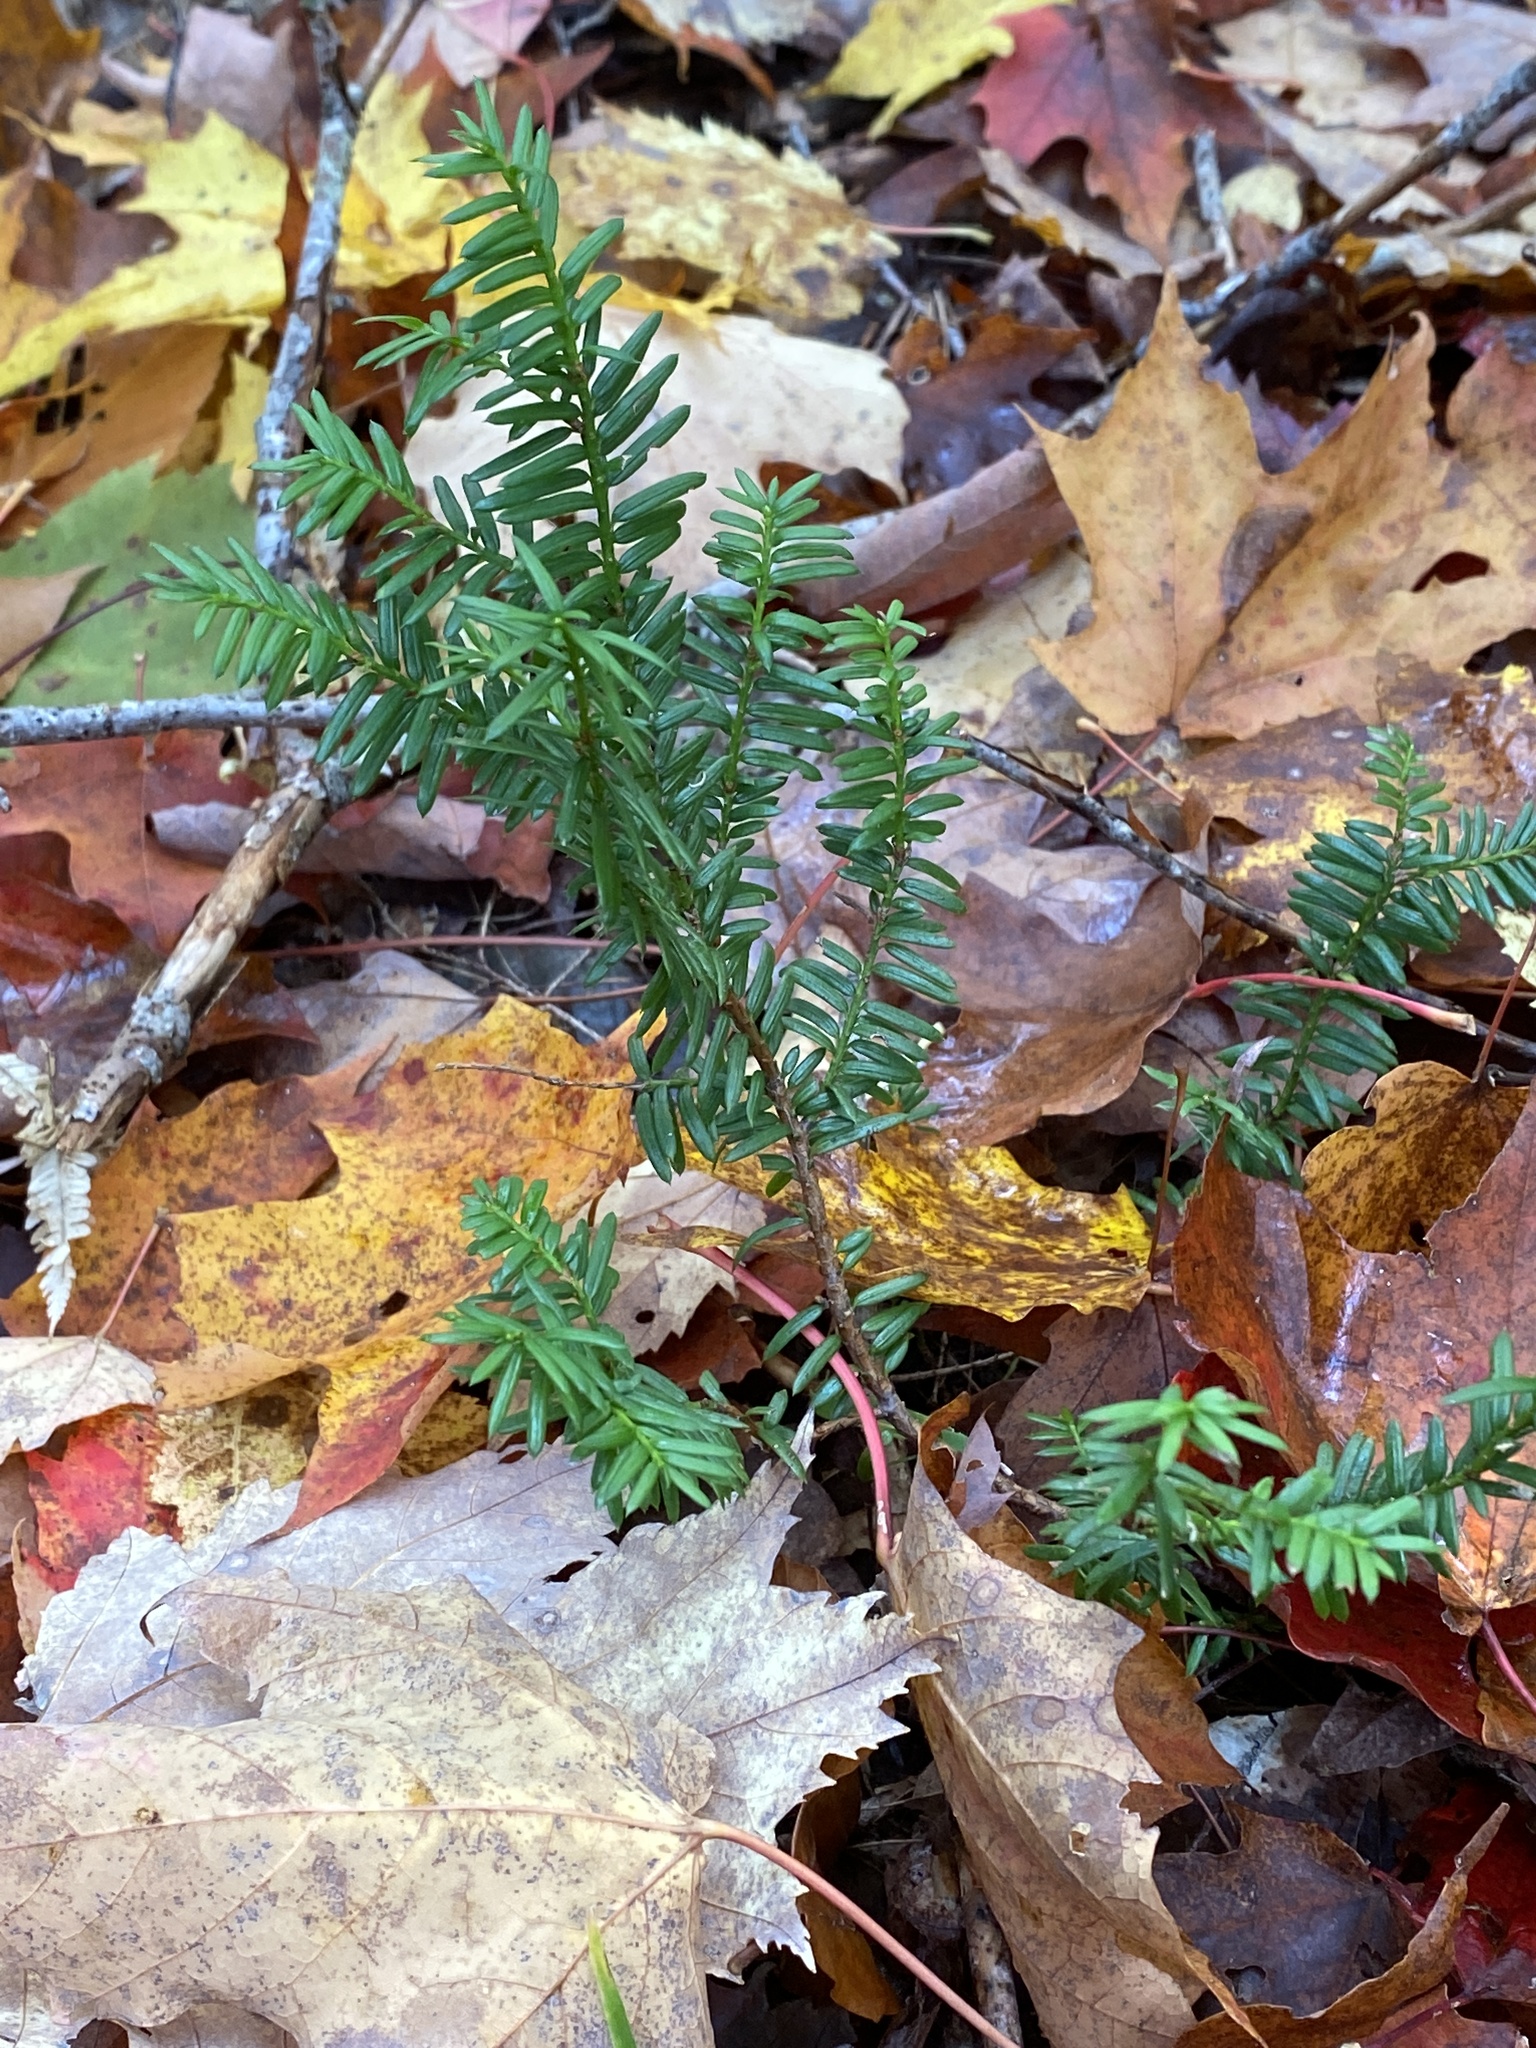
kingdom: Plantae
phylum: Tracheophyta
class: Pinopsida
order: Pinales
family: Taxaceae
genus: Taxus
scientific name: Taxus canadensis
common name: American yew
